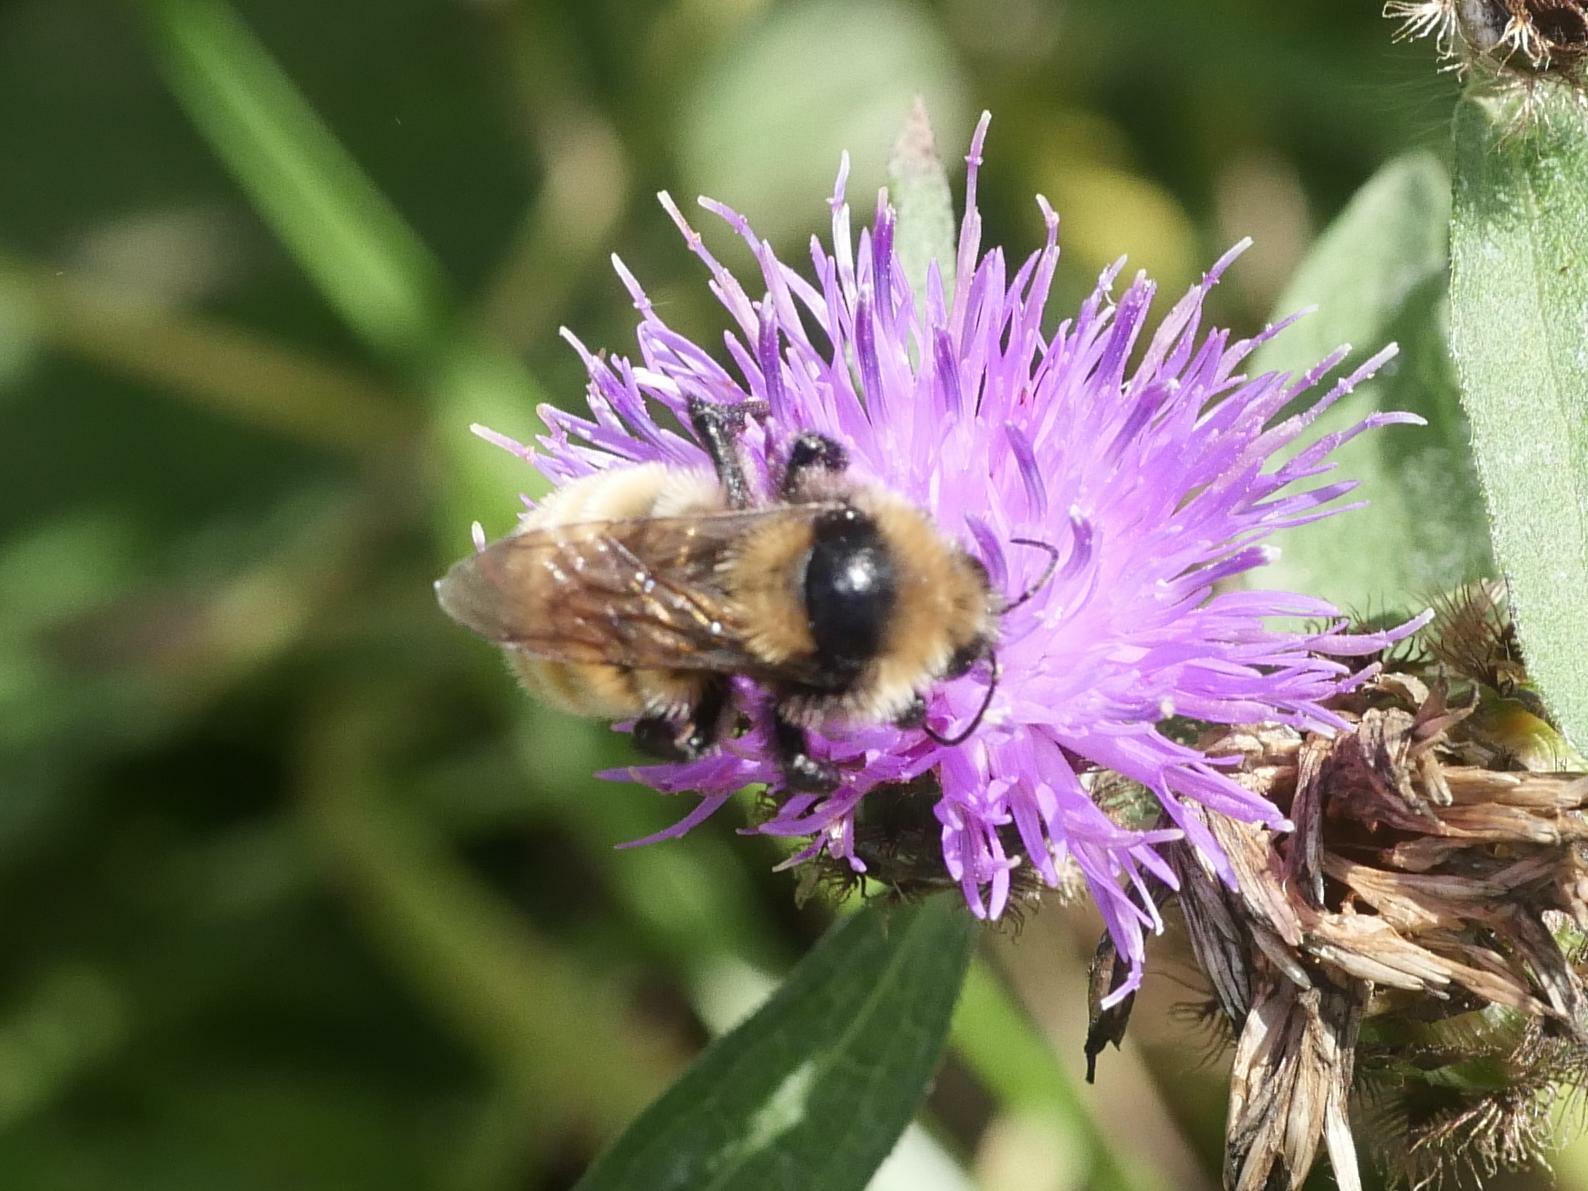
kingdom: Animalia
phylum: Arthropoda
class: Insecta
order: Hymenoptera
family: Apidae
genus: Bombus
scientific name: Bombus borealis
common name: Northern amber bumble bee
